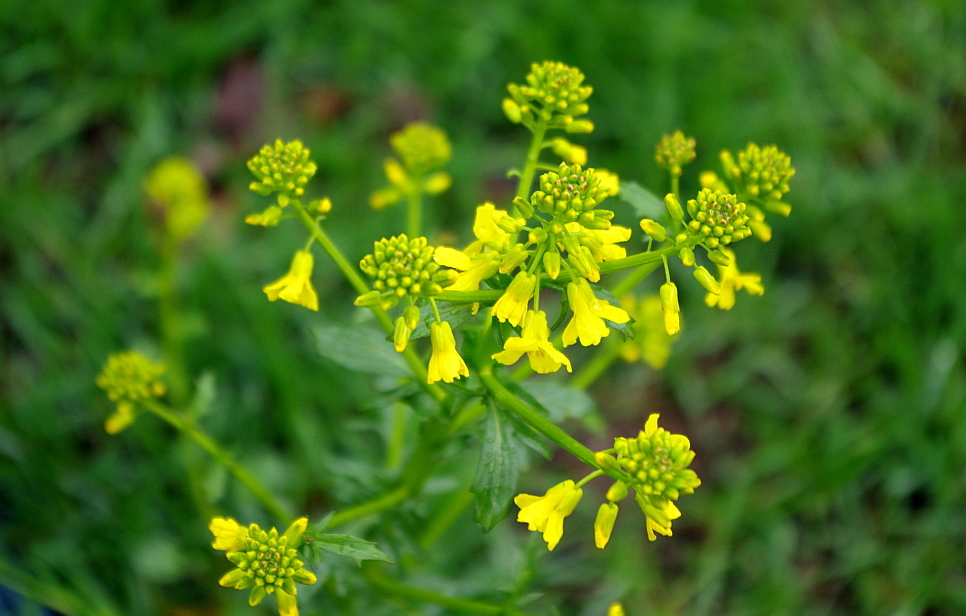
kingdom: Plantae
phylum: Tracheophyta
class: Magnoliopsida
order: Brassicales
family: Brassicaceae
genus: Barbarea
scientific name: Barbarea vulgaris
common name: Cressy-greens
